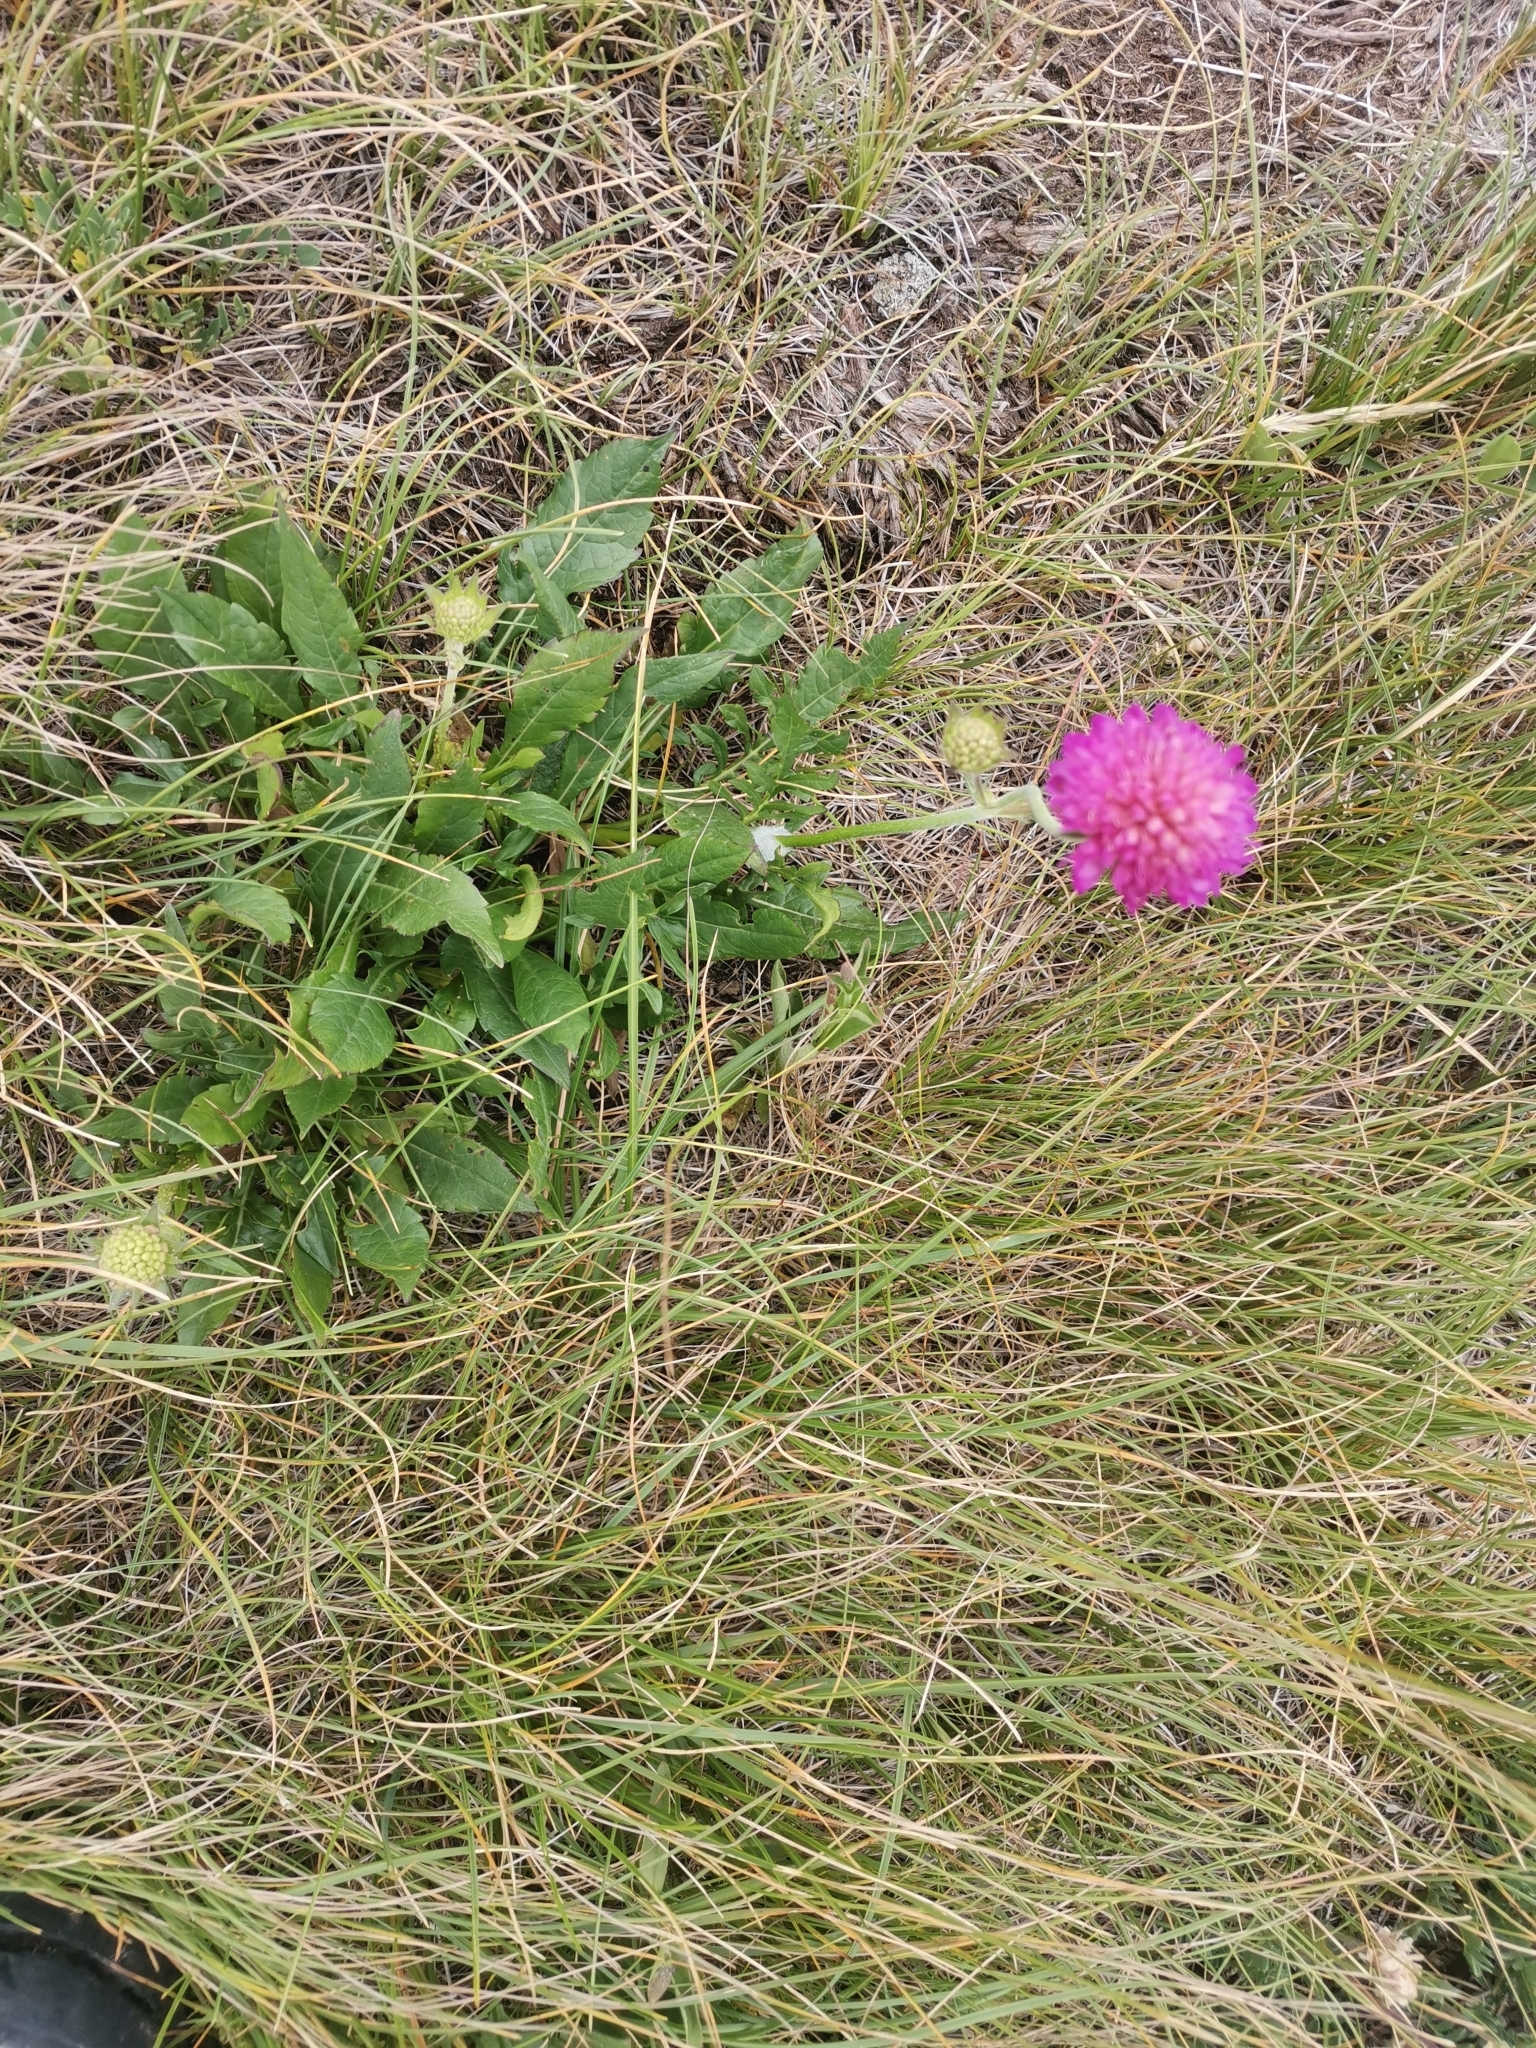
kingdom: Plantae
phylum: Tracheophyta
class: Magnoliopsida
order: Dipsacales
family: Caprifoliaceae
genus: Knautia
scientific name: Knautia fleischmannii
